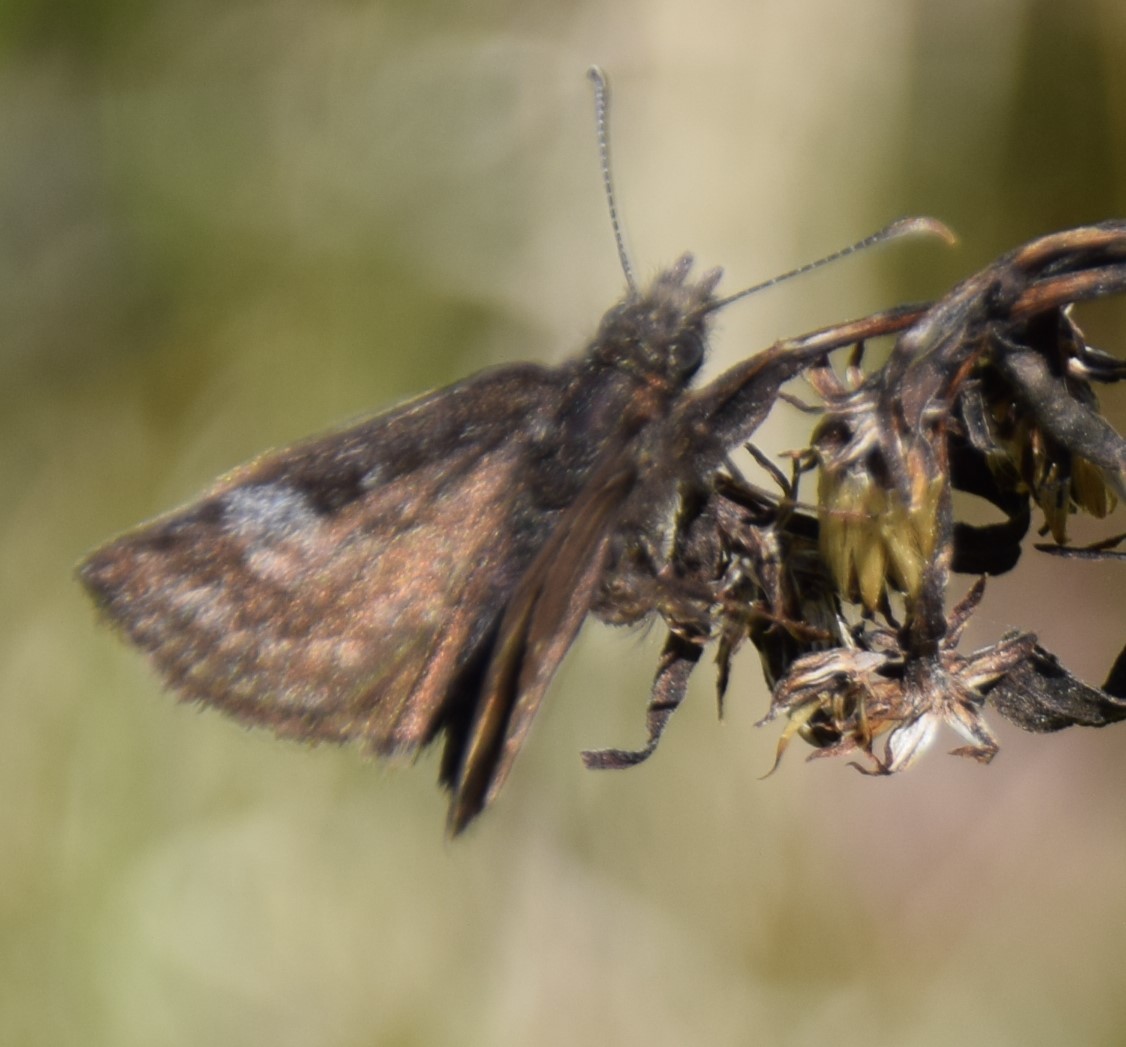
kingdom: Animalia
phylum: Arthropoda
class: Insecta
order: Lepidoptera
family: Hesperiidae
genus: Erynnis
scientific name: Erynnis icelus
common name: Dreamy duskywing
